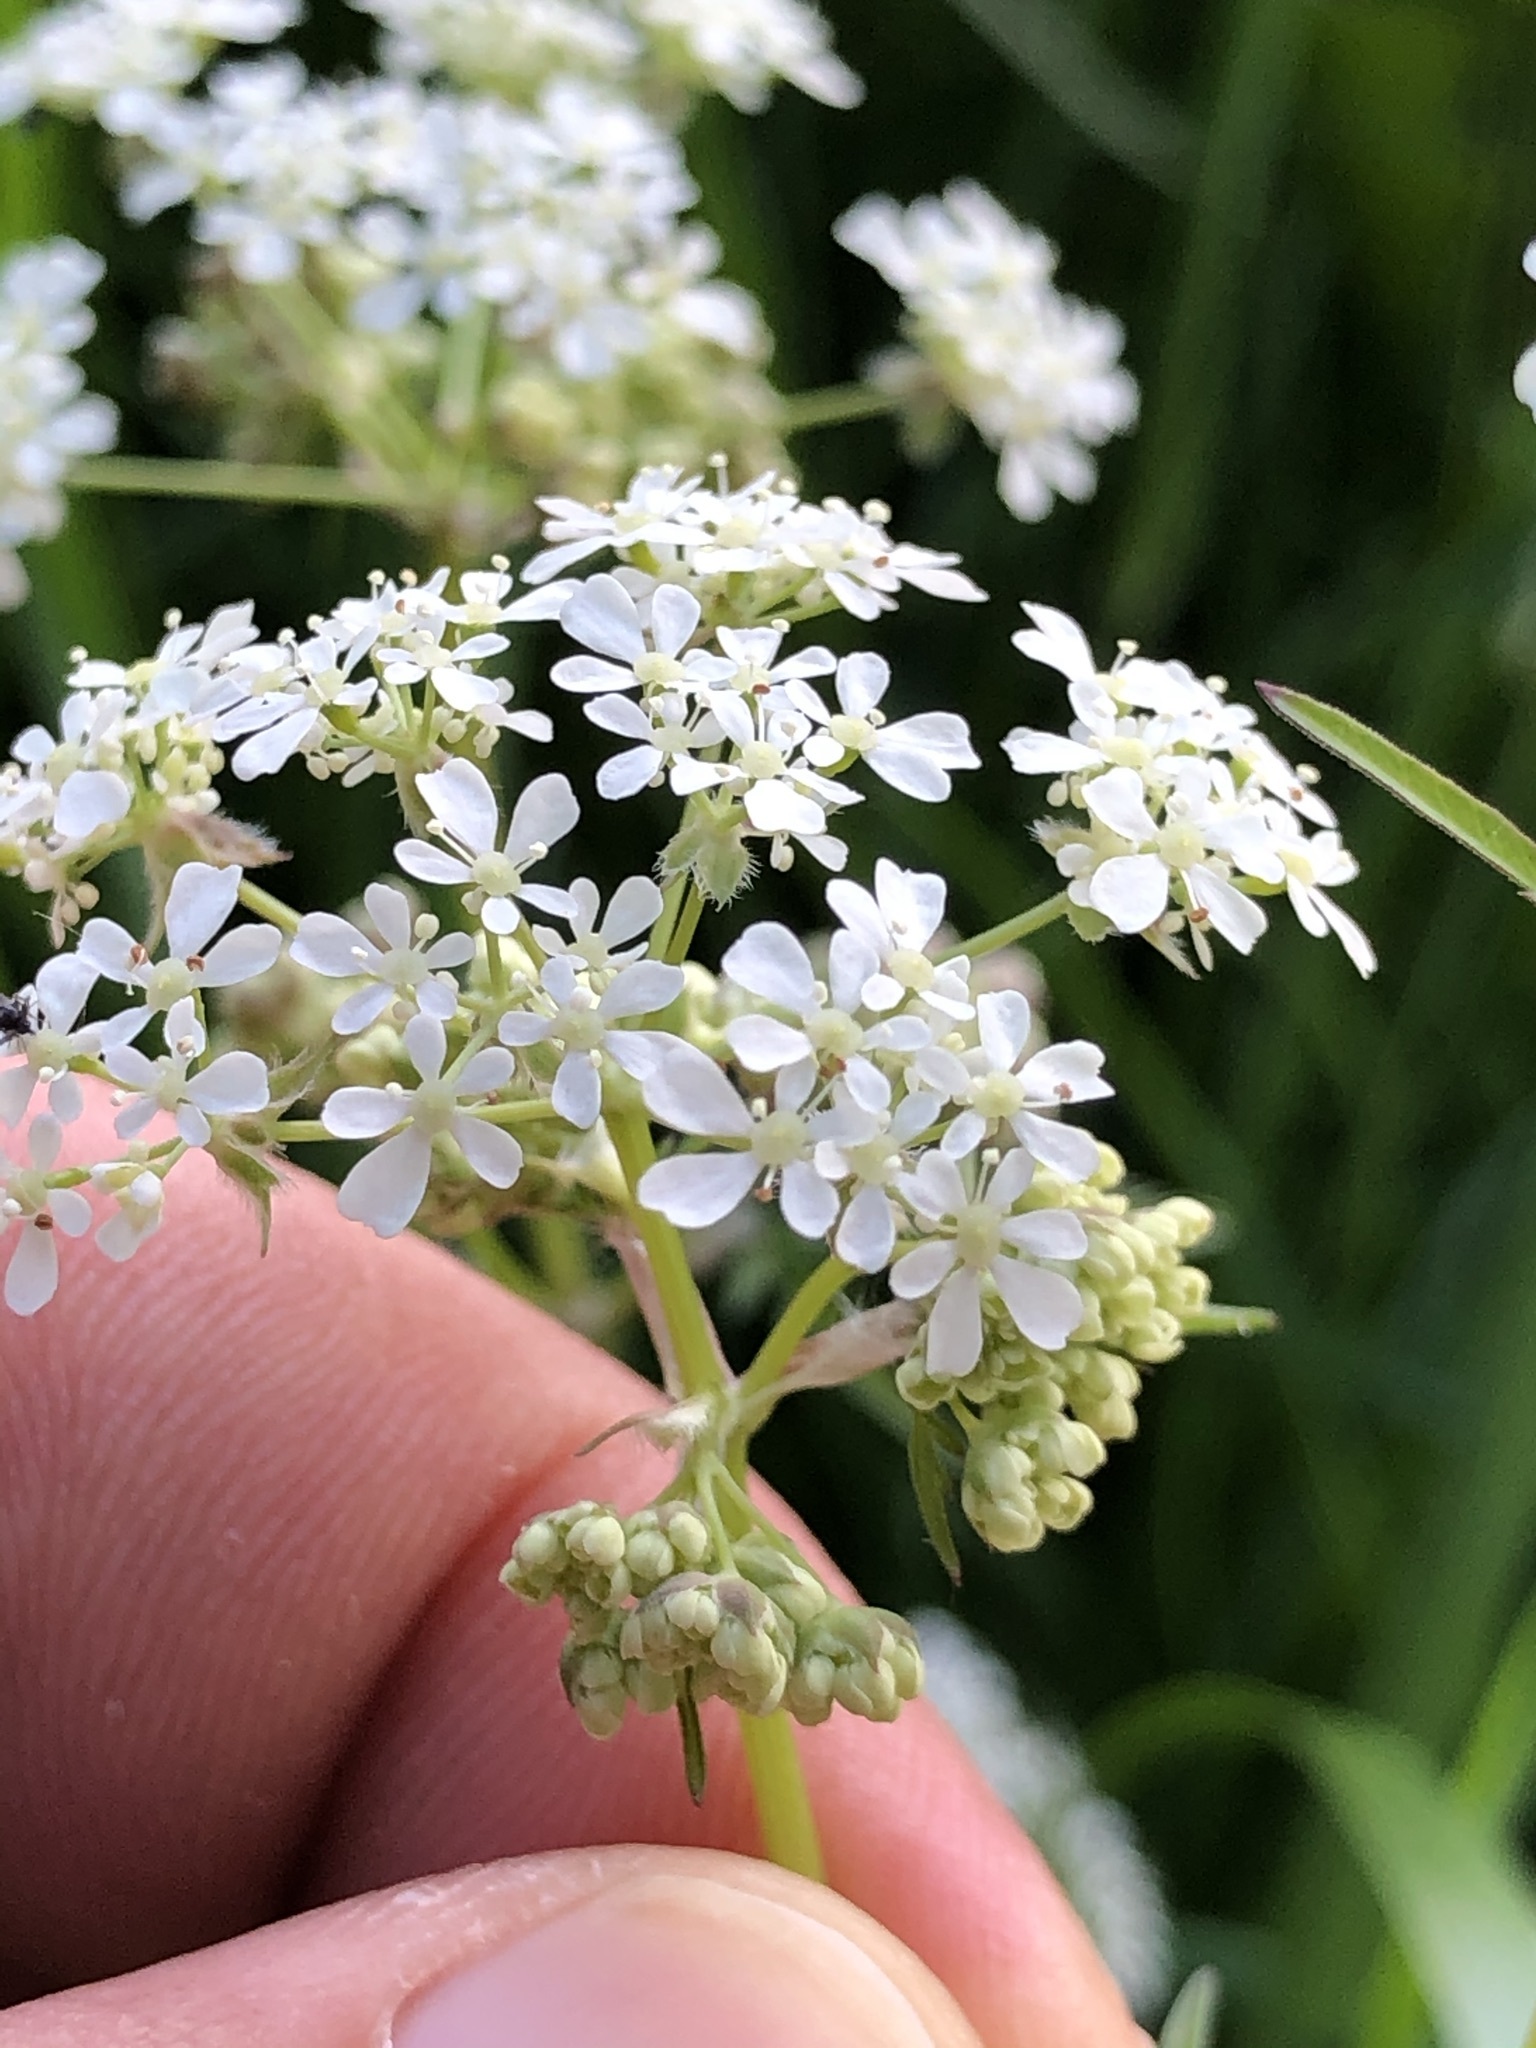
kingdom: Plantae
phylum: Tracheophyta
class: Magnoliopsida
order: Apiales
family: Apiaceae
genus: Anthriscus
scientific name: Anthriscus sylvestris
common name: Cow parsley
